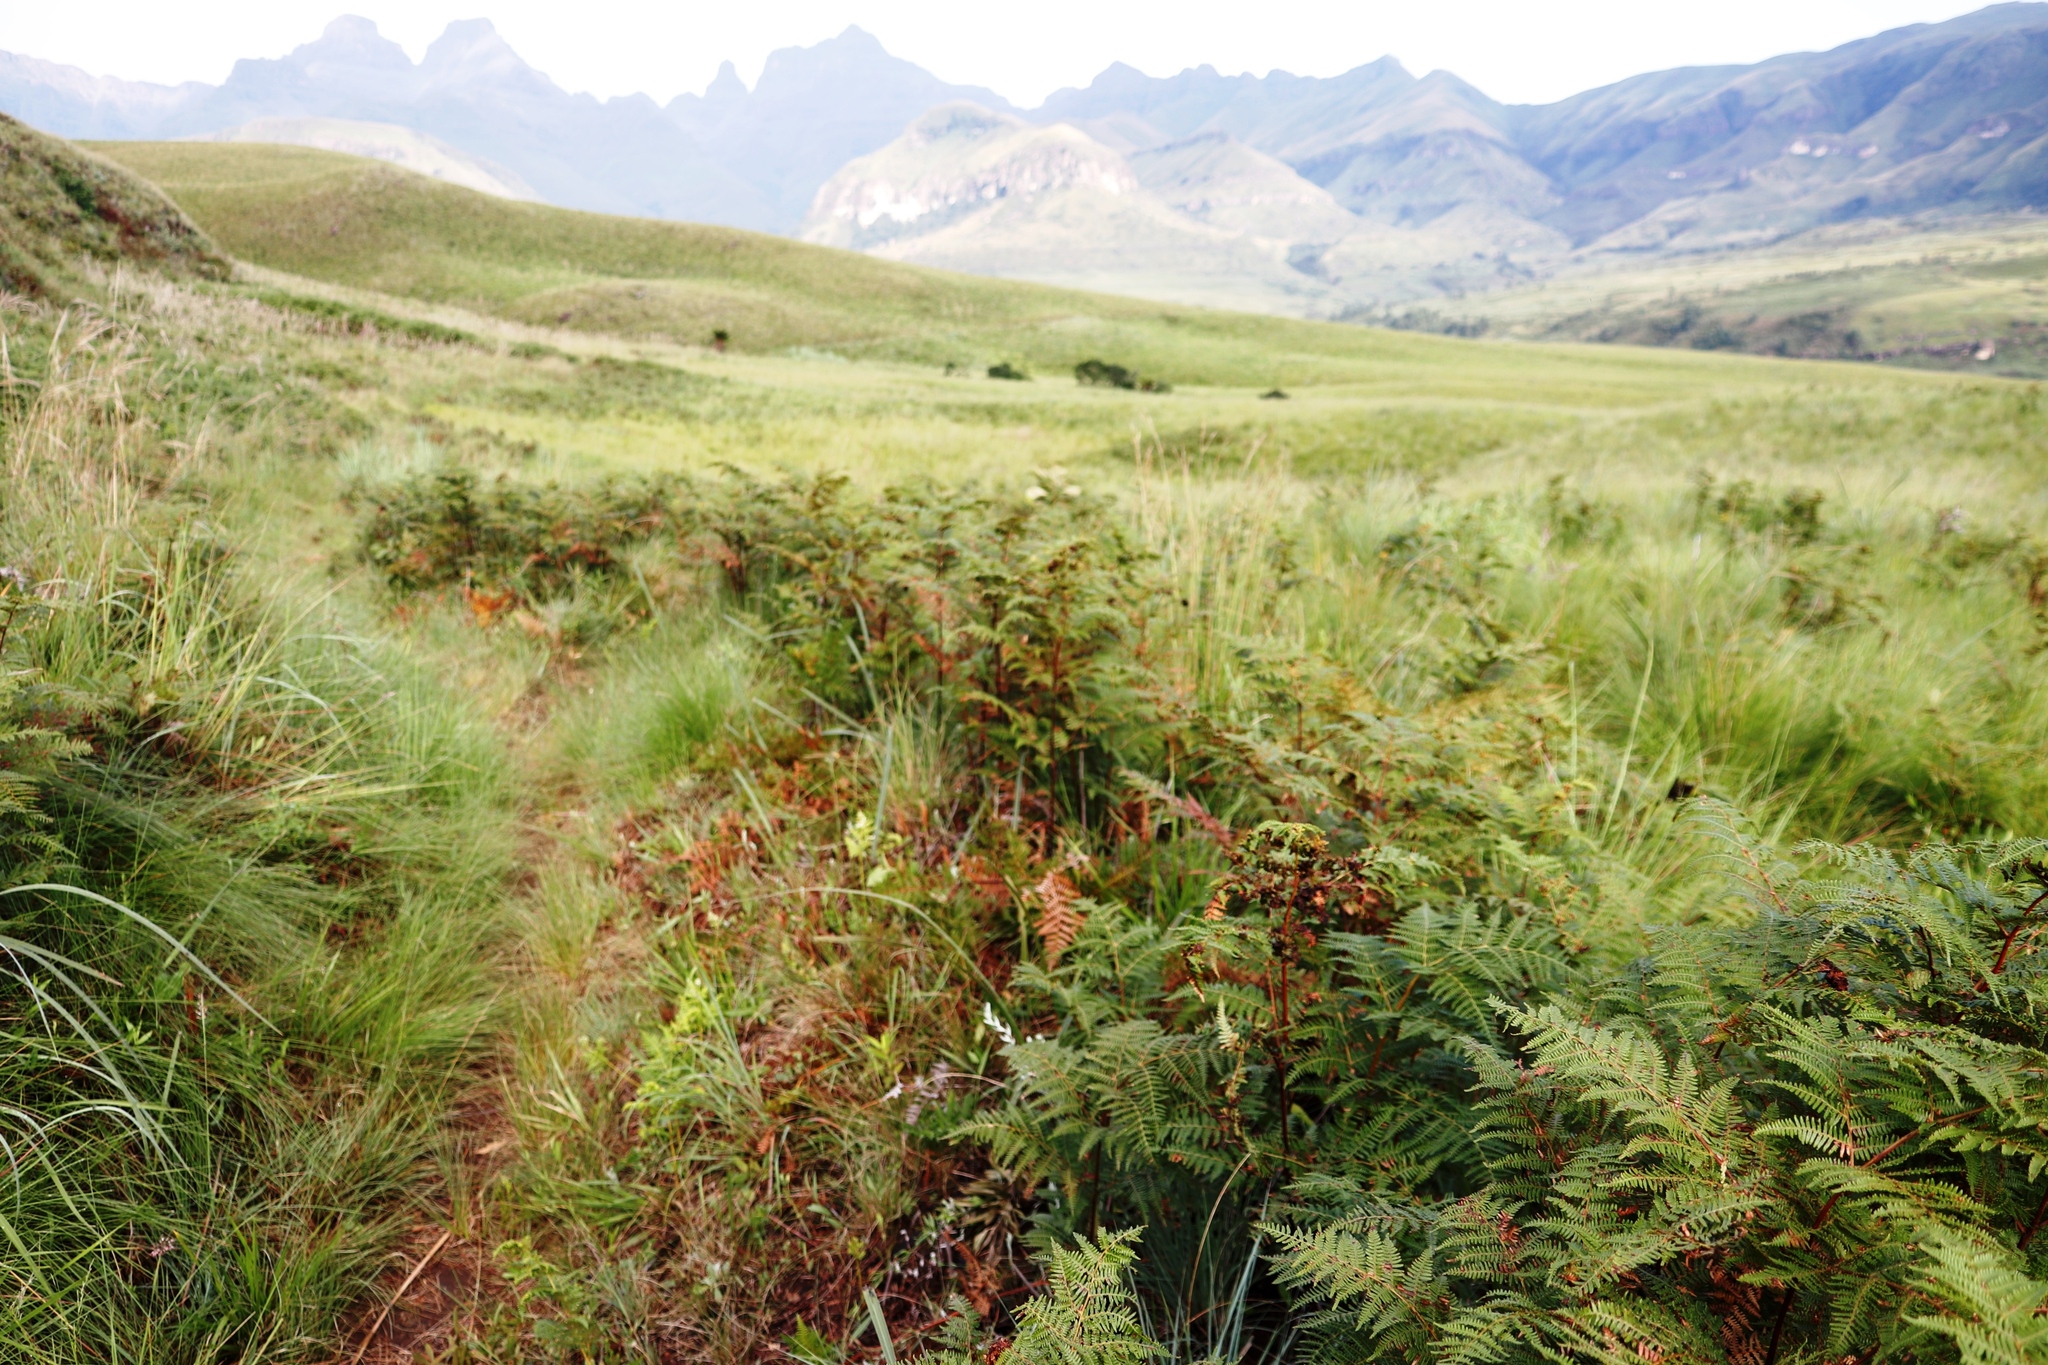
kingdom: Plantae
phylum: Tracheophyta
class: Polypodiopsida
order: Polypodiales
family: Dennstaedtiaceae
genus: Pteridium
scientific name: Pteridium aquilinum
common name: Bracken
